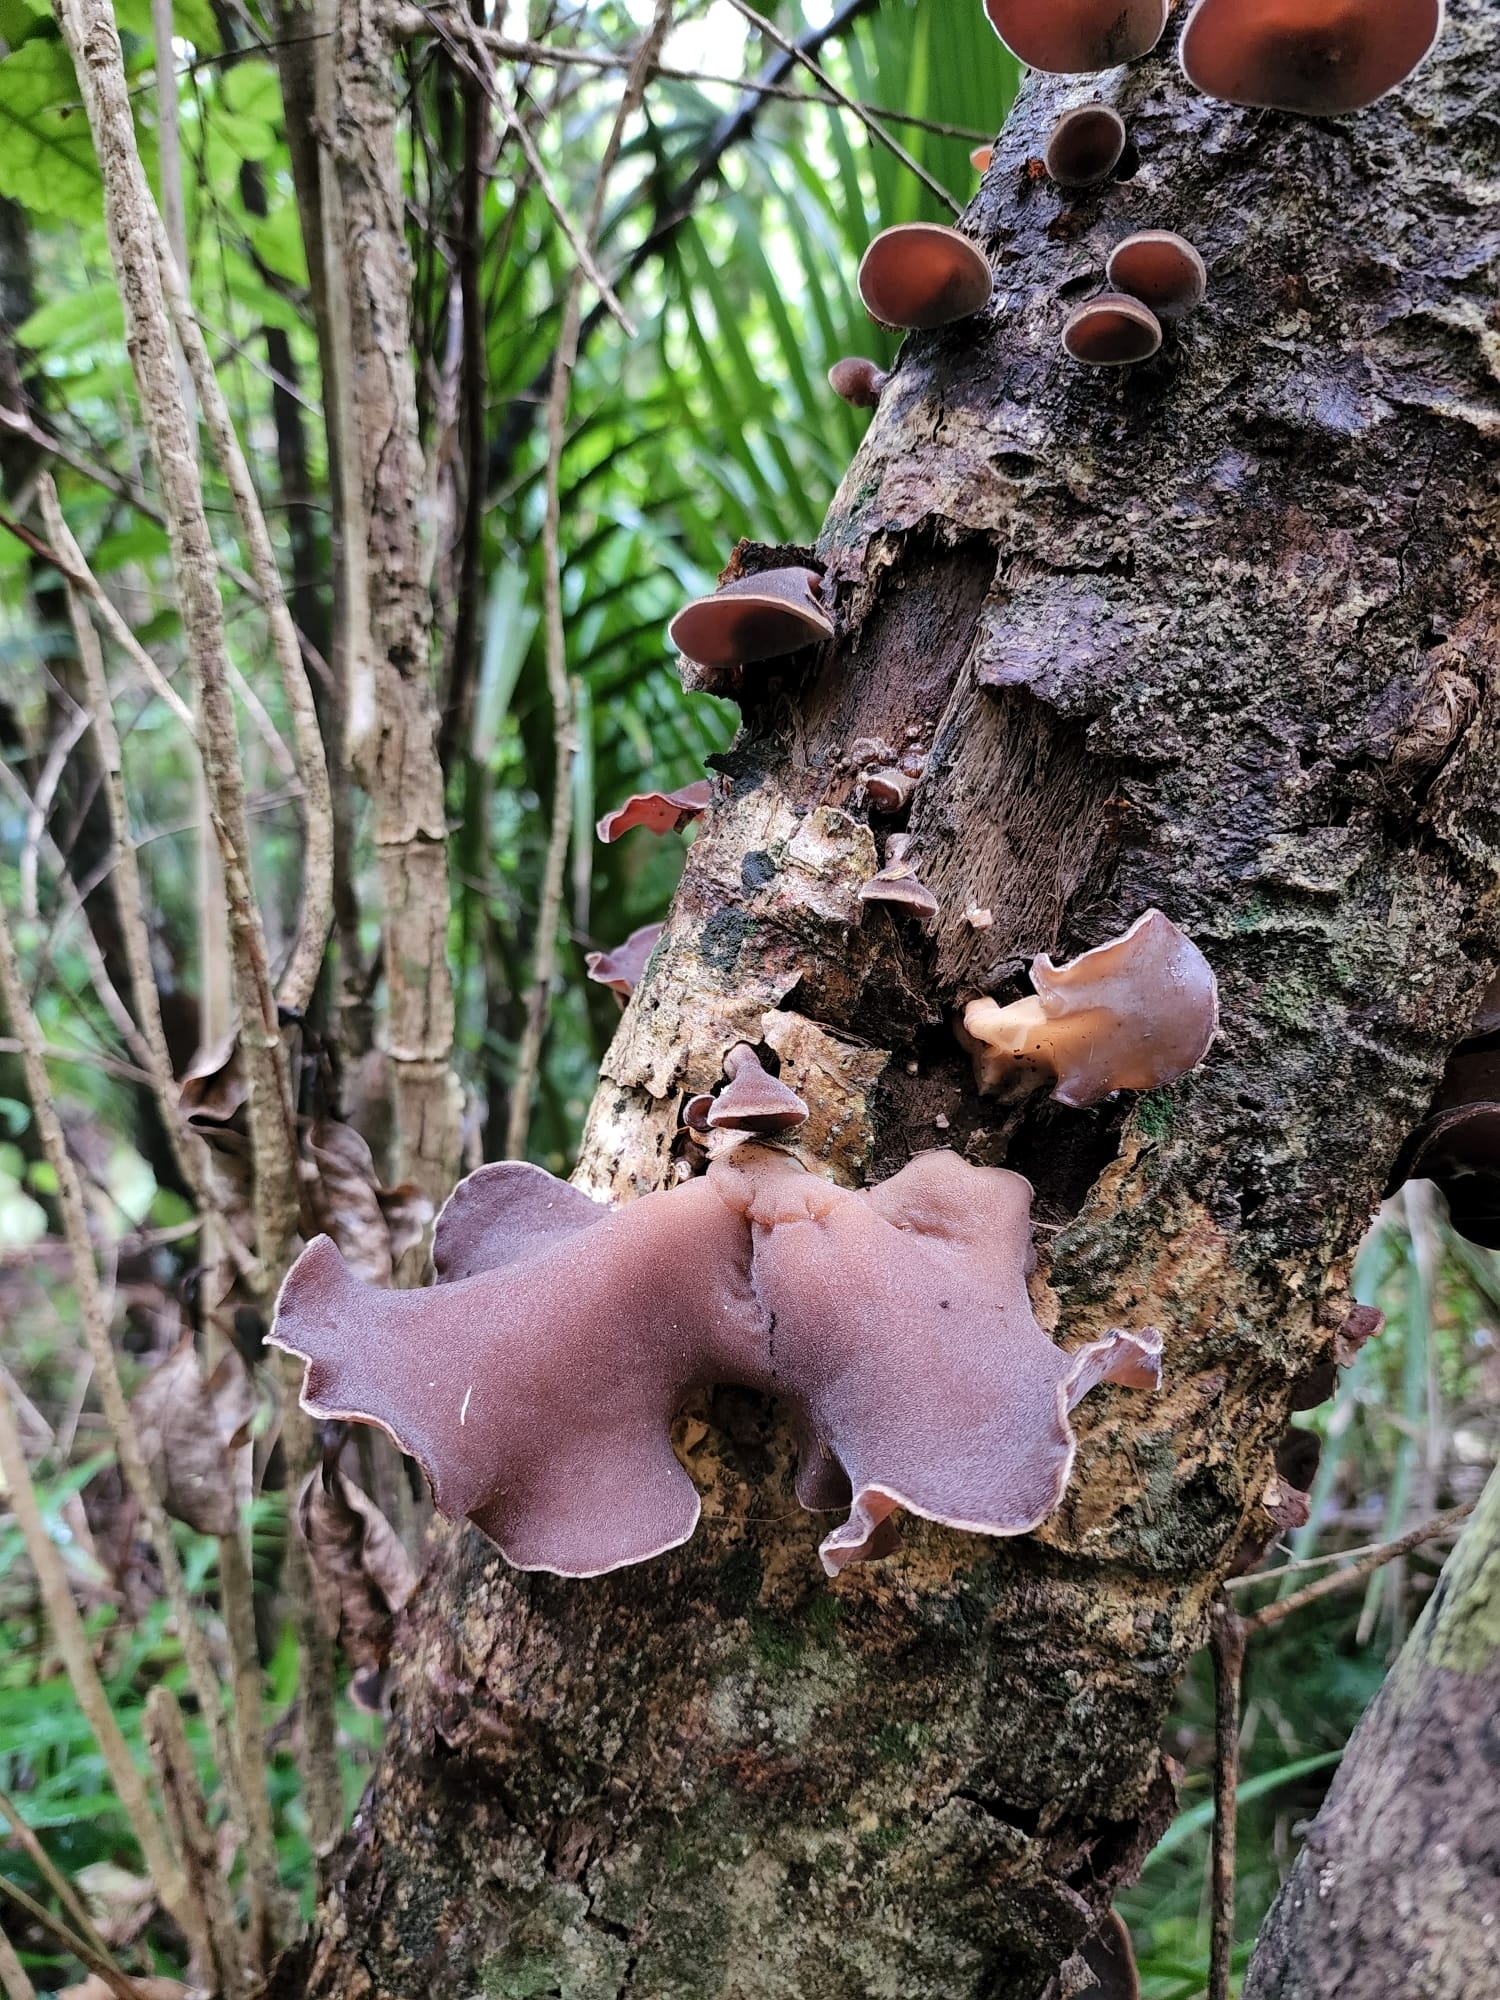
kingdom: Fungi
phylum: Basidiomycota
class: Agaricomycetes
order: Auriculariales
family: Auriculariaceae
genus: Auricularia
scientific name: Auricularia cornea
